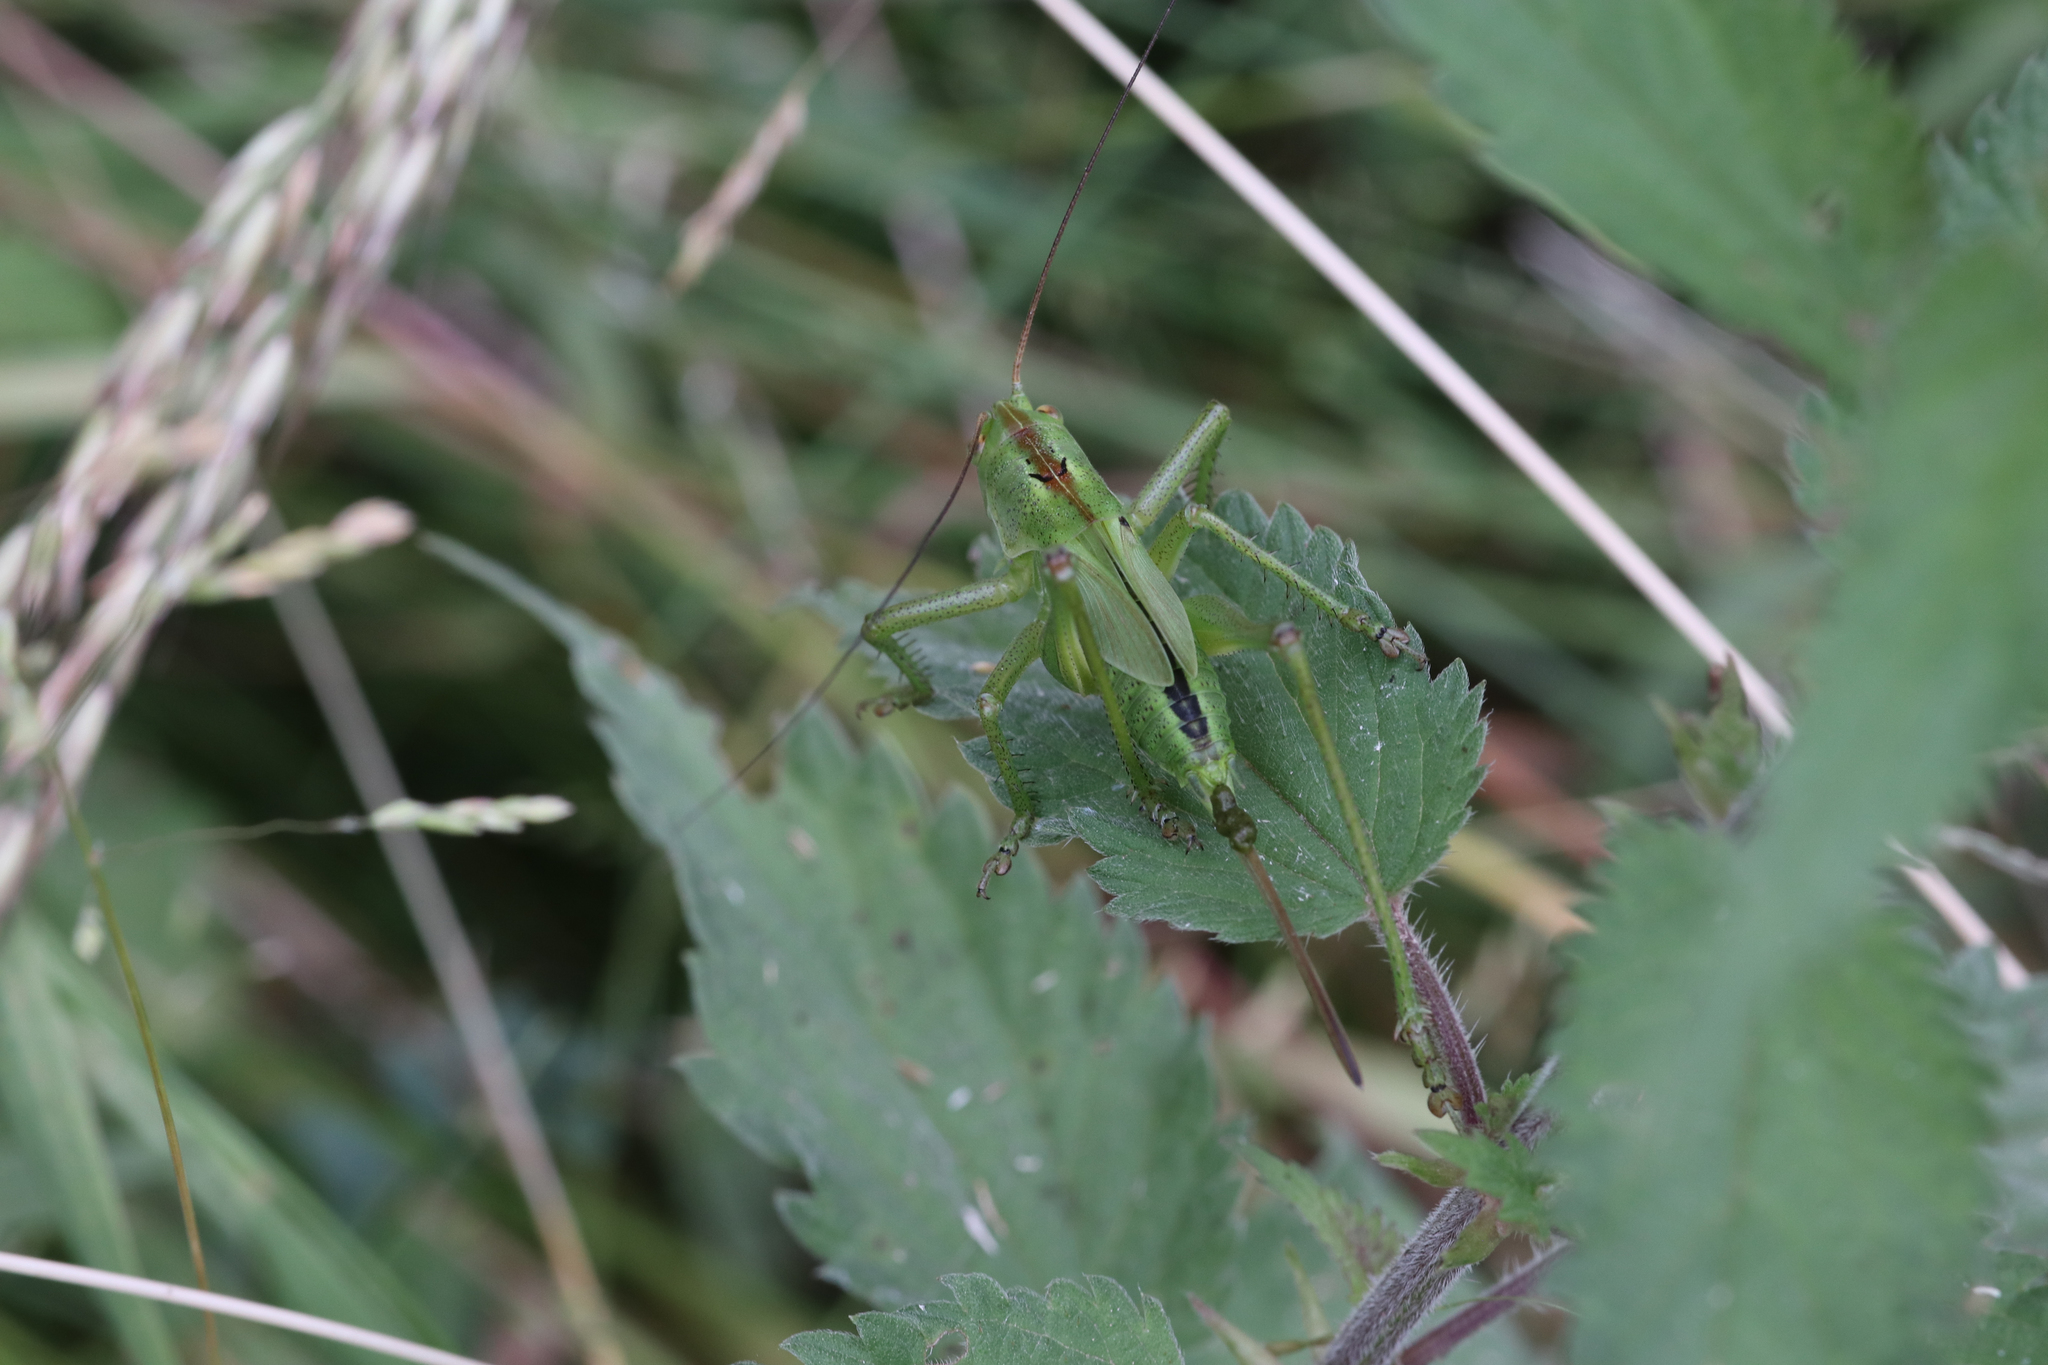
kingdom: Animalia
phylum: Arthropoda
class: Insecta
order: Orthoptera
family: Tettigoniidae
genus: Tettigonia
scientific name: Tettigonia viridissima
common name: Great green bush-cricket
